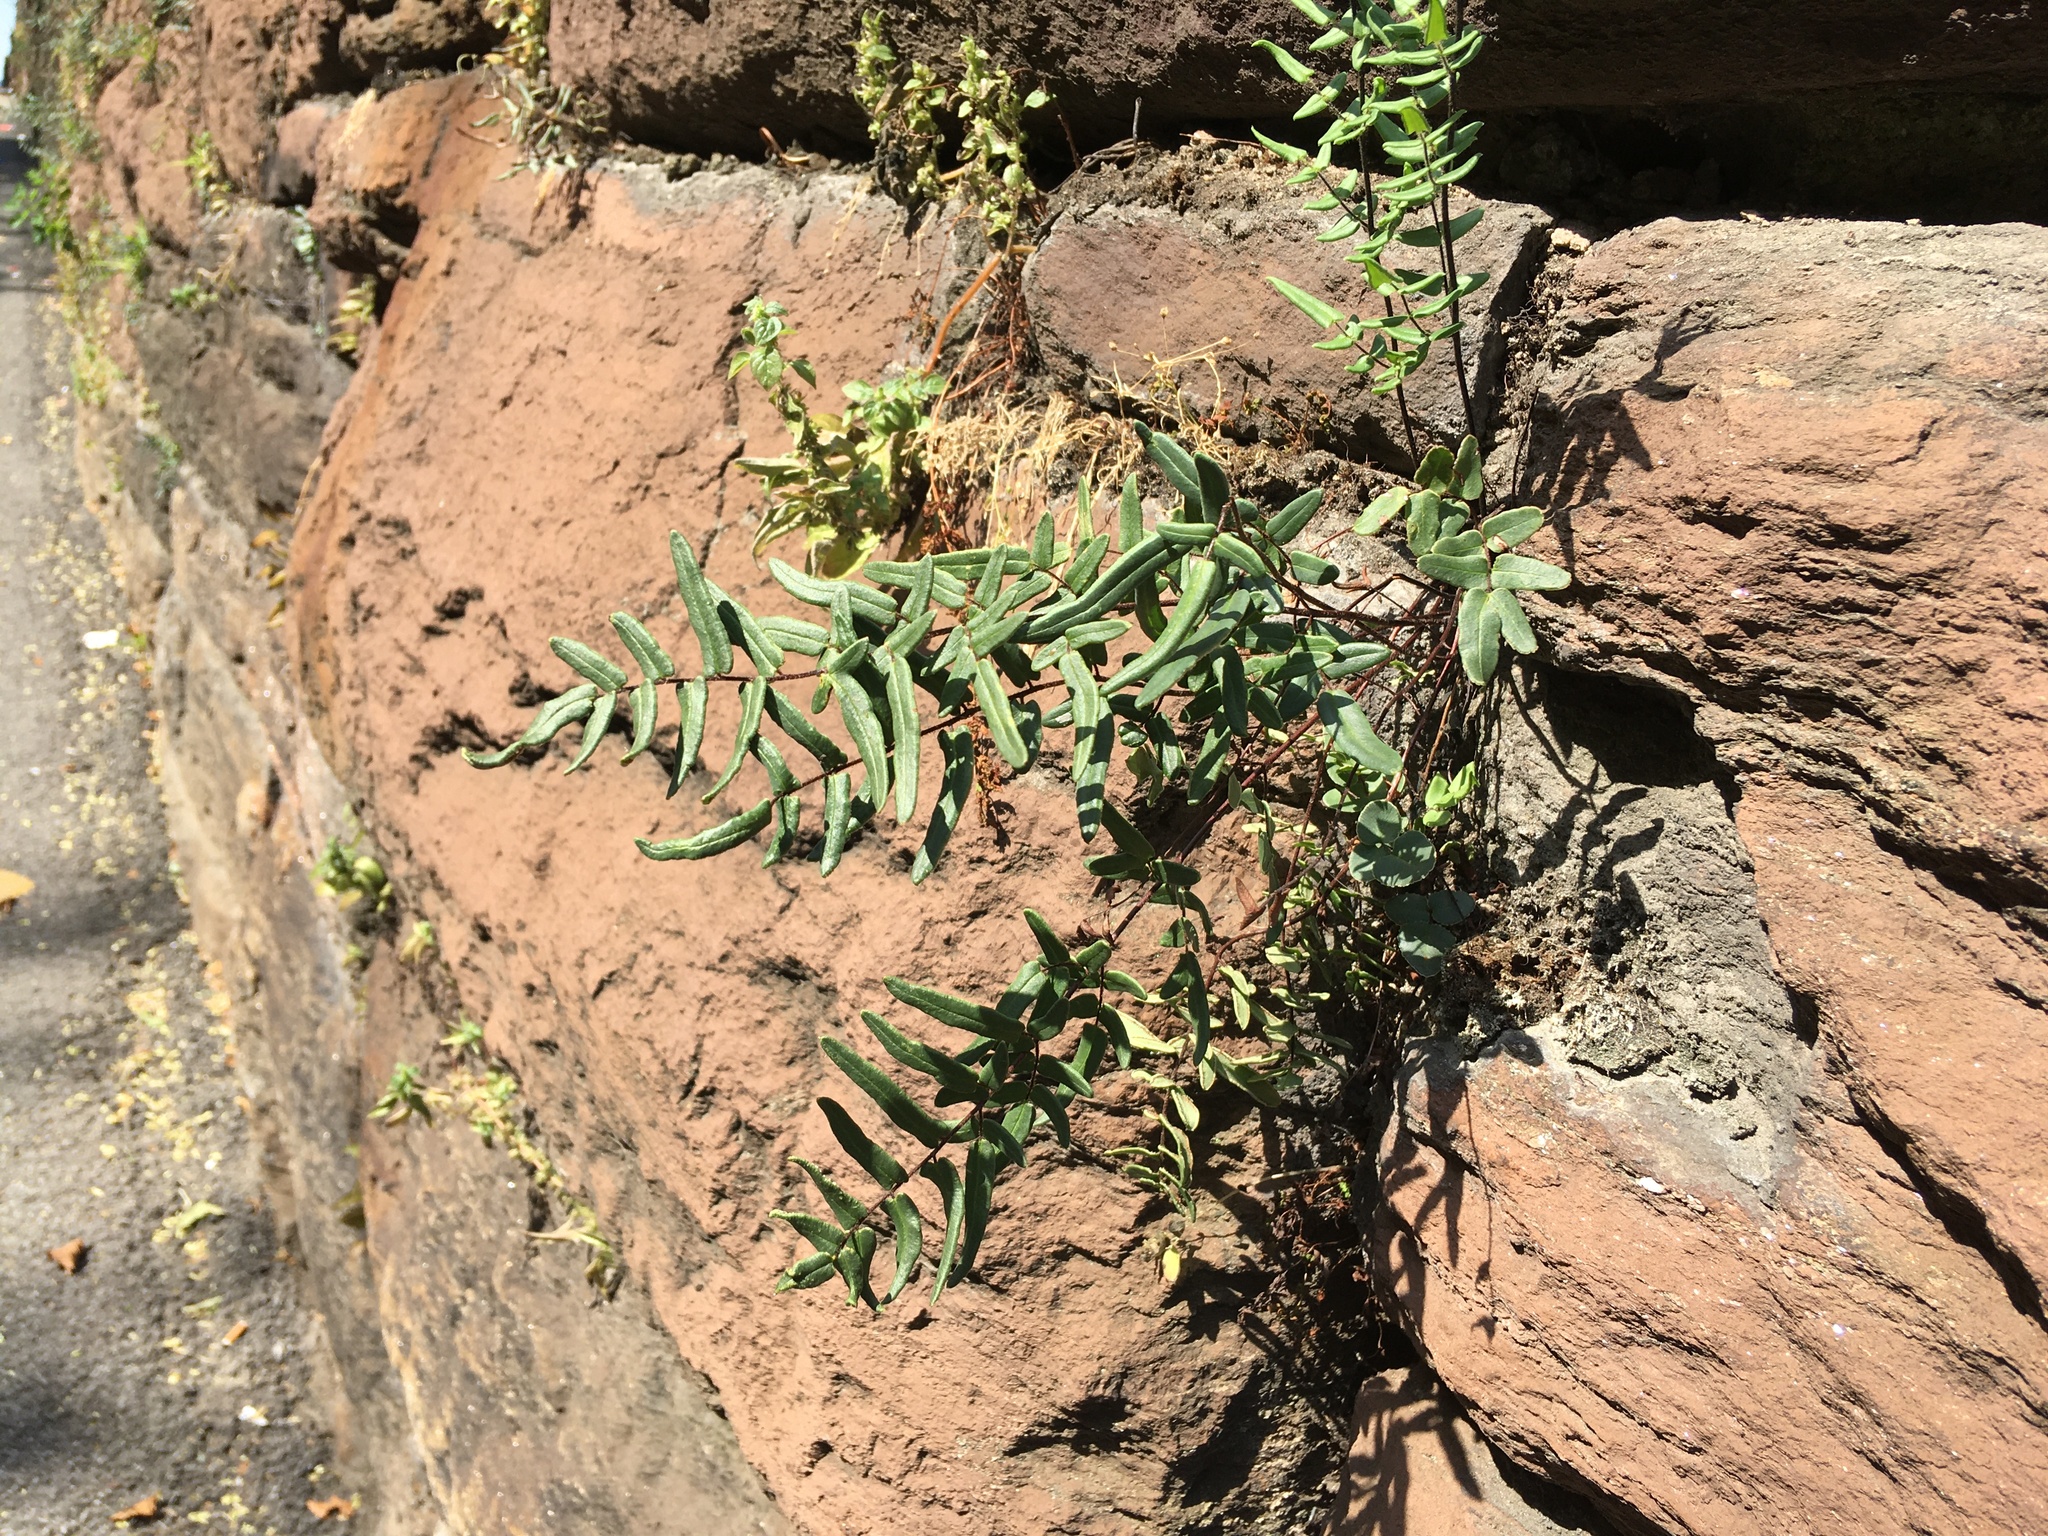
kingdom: Plantae
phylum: Tracheophyta
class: Polypodiopsida
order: Polypodiales
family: Pteridaceae
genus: Pellaea
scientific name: Pellaea atropurpurea
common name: Hairy cliffbrake
